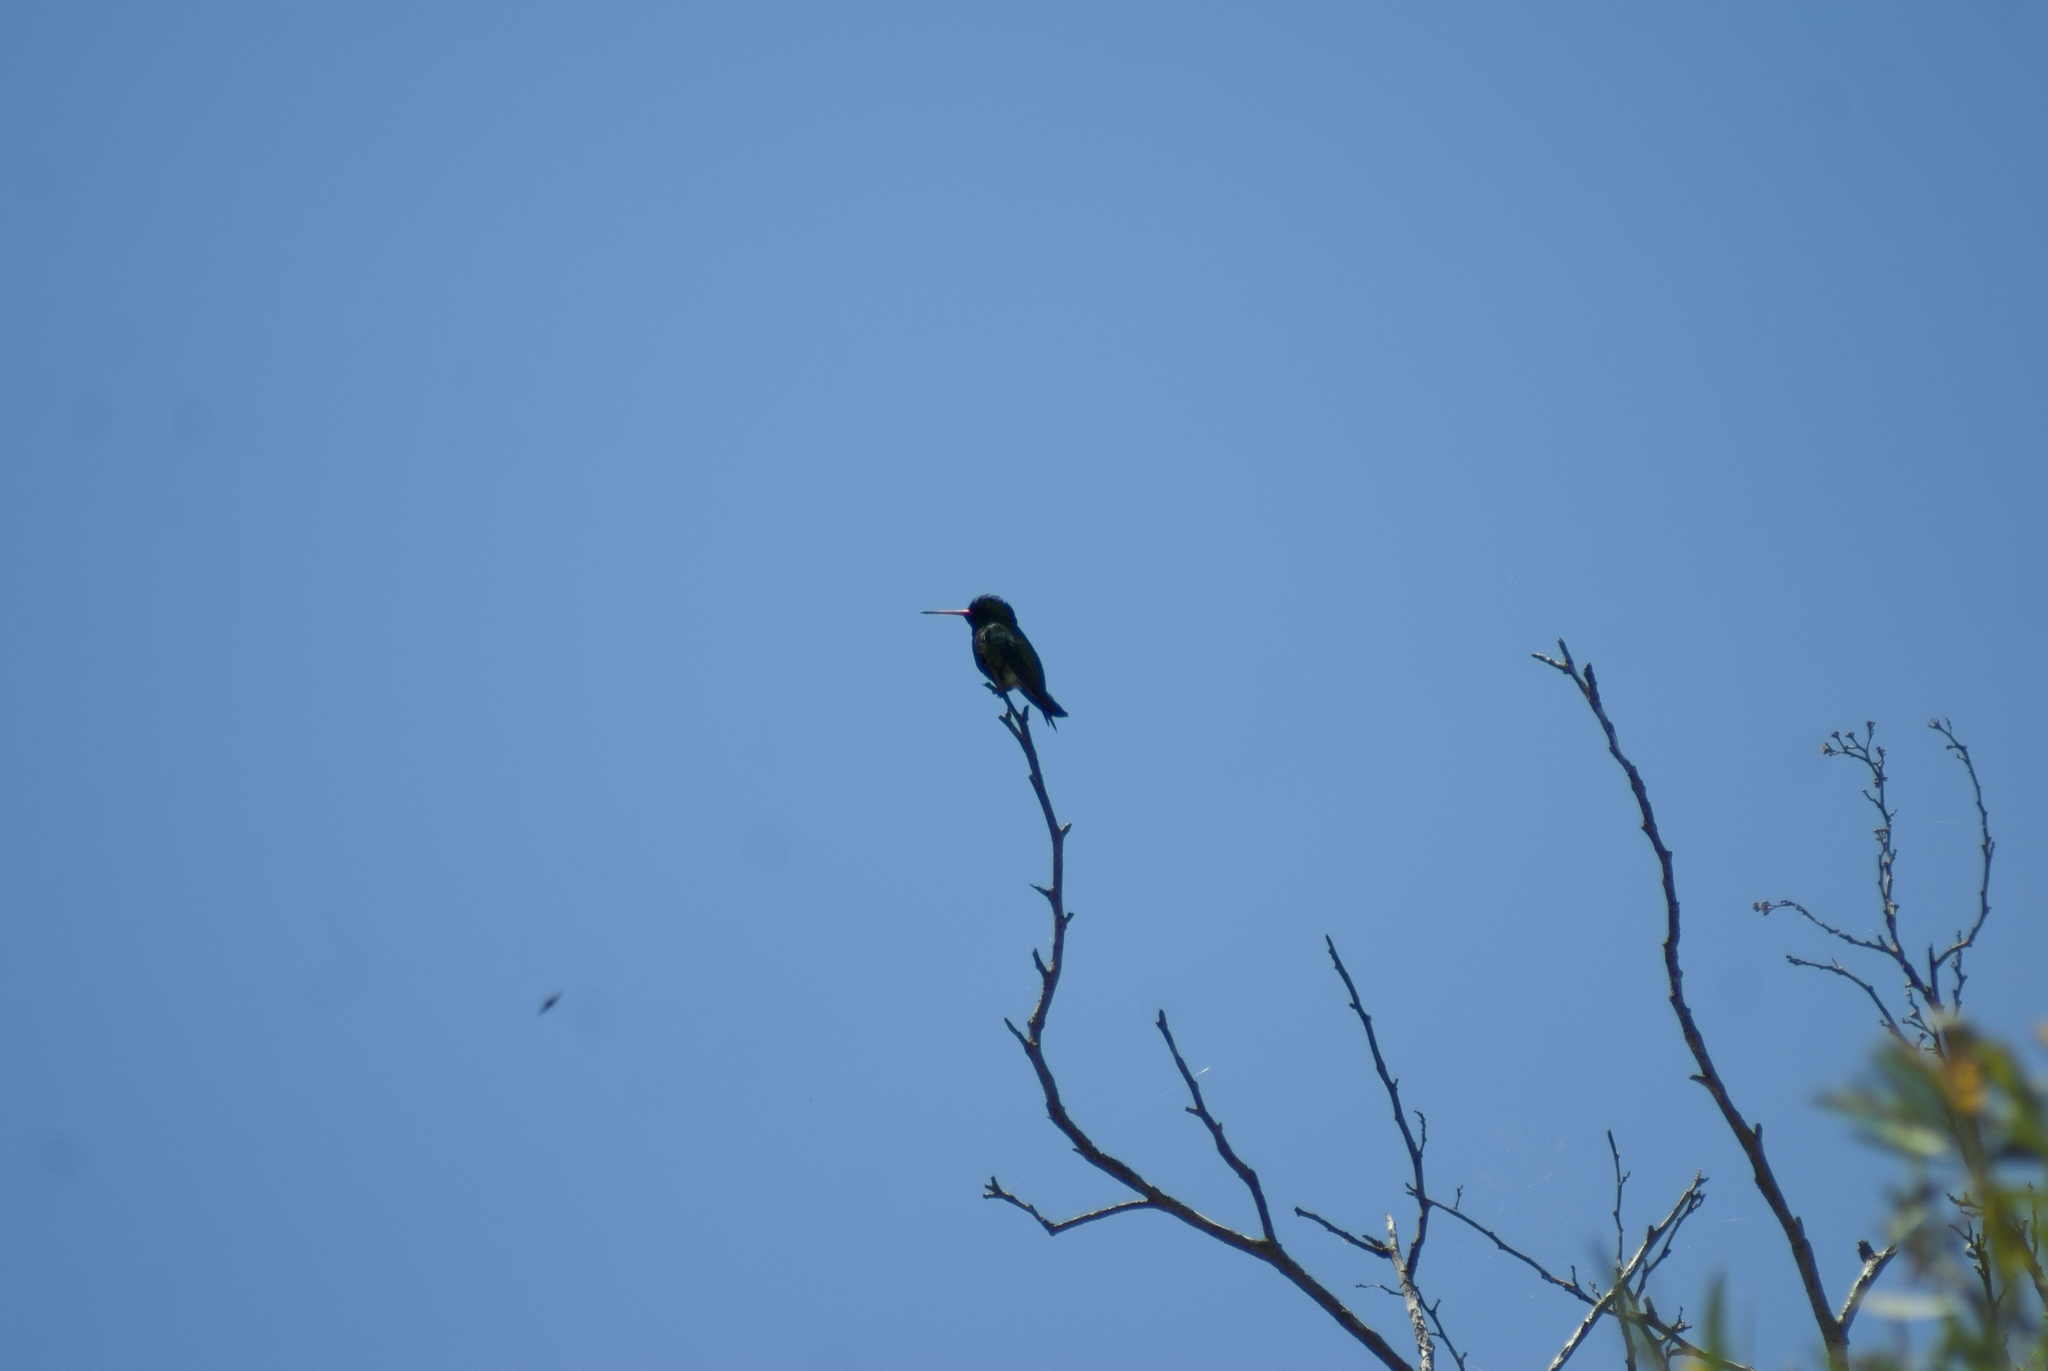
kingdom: Animalia
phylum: Chordata
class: Aves
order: Apodiformes
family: Trochilidae
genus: Chlorostilbon
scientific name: Chlorostilbon lucidus
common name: Glittering-bellied emerald
